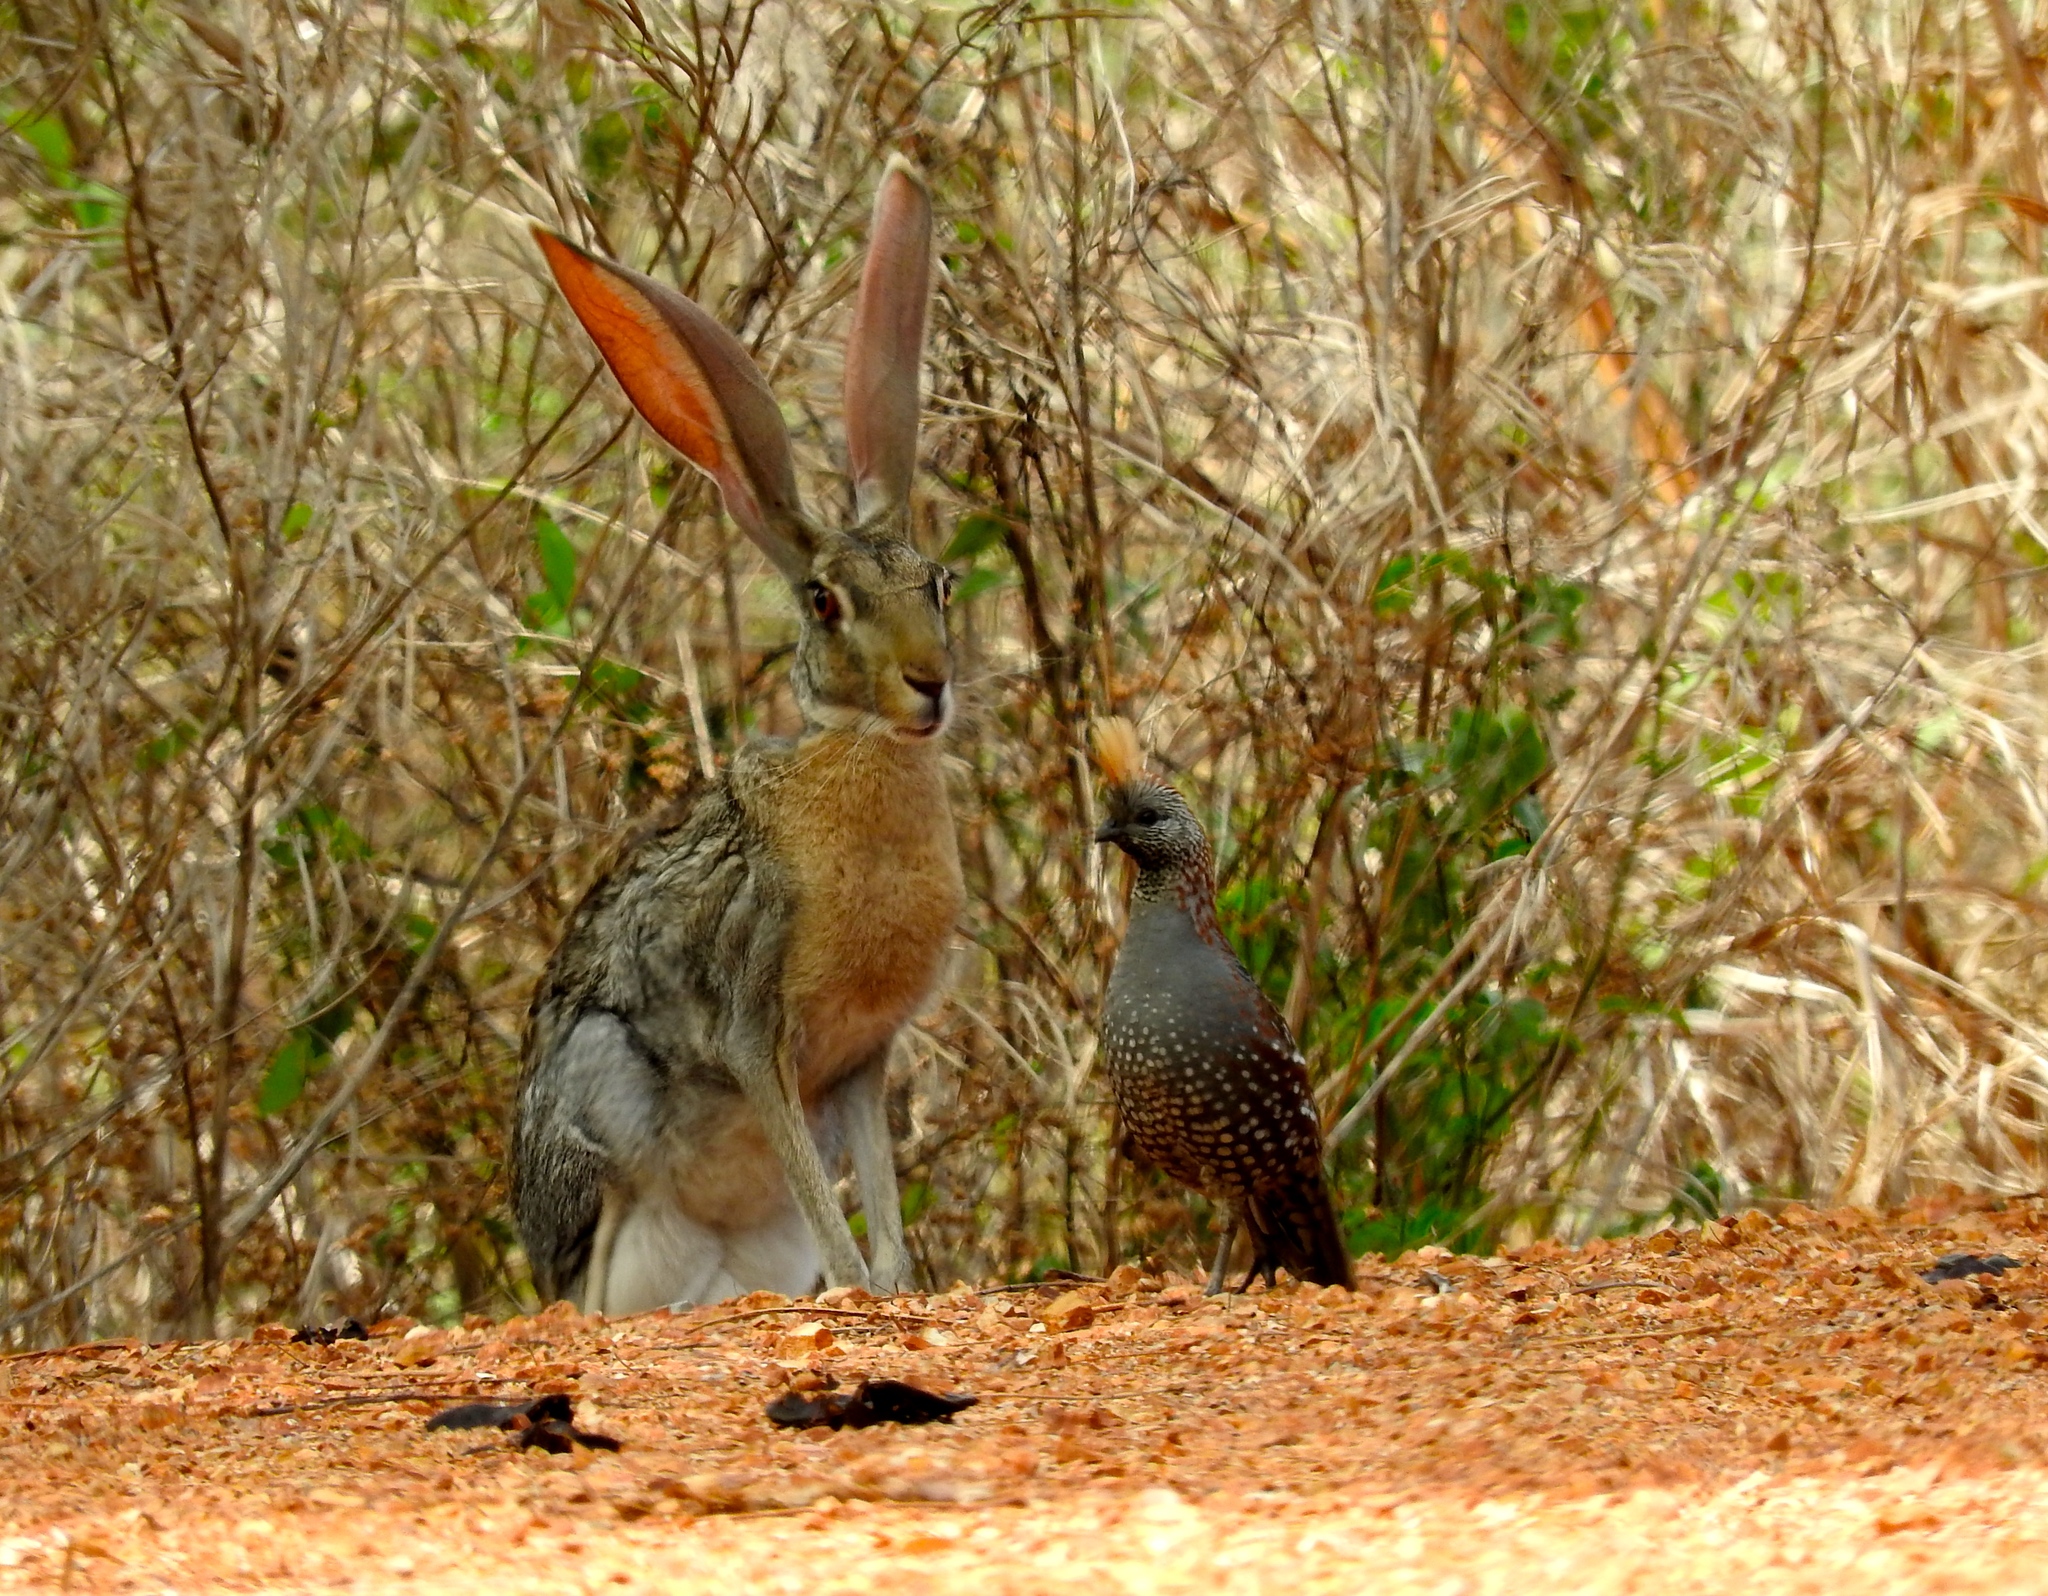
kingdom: Animalia
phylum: Chordata
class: Aves
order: Galliformes
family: Odontophoridae
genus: Callipepla
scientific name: Callipepla douglasii
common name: Elegant quail
